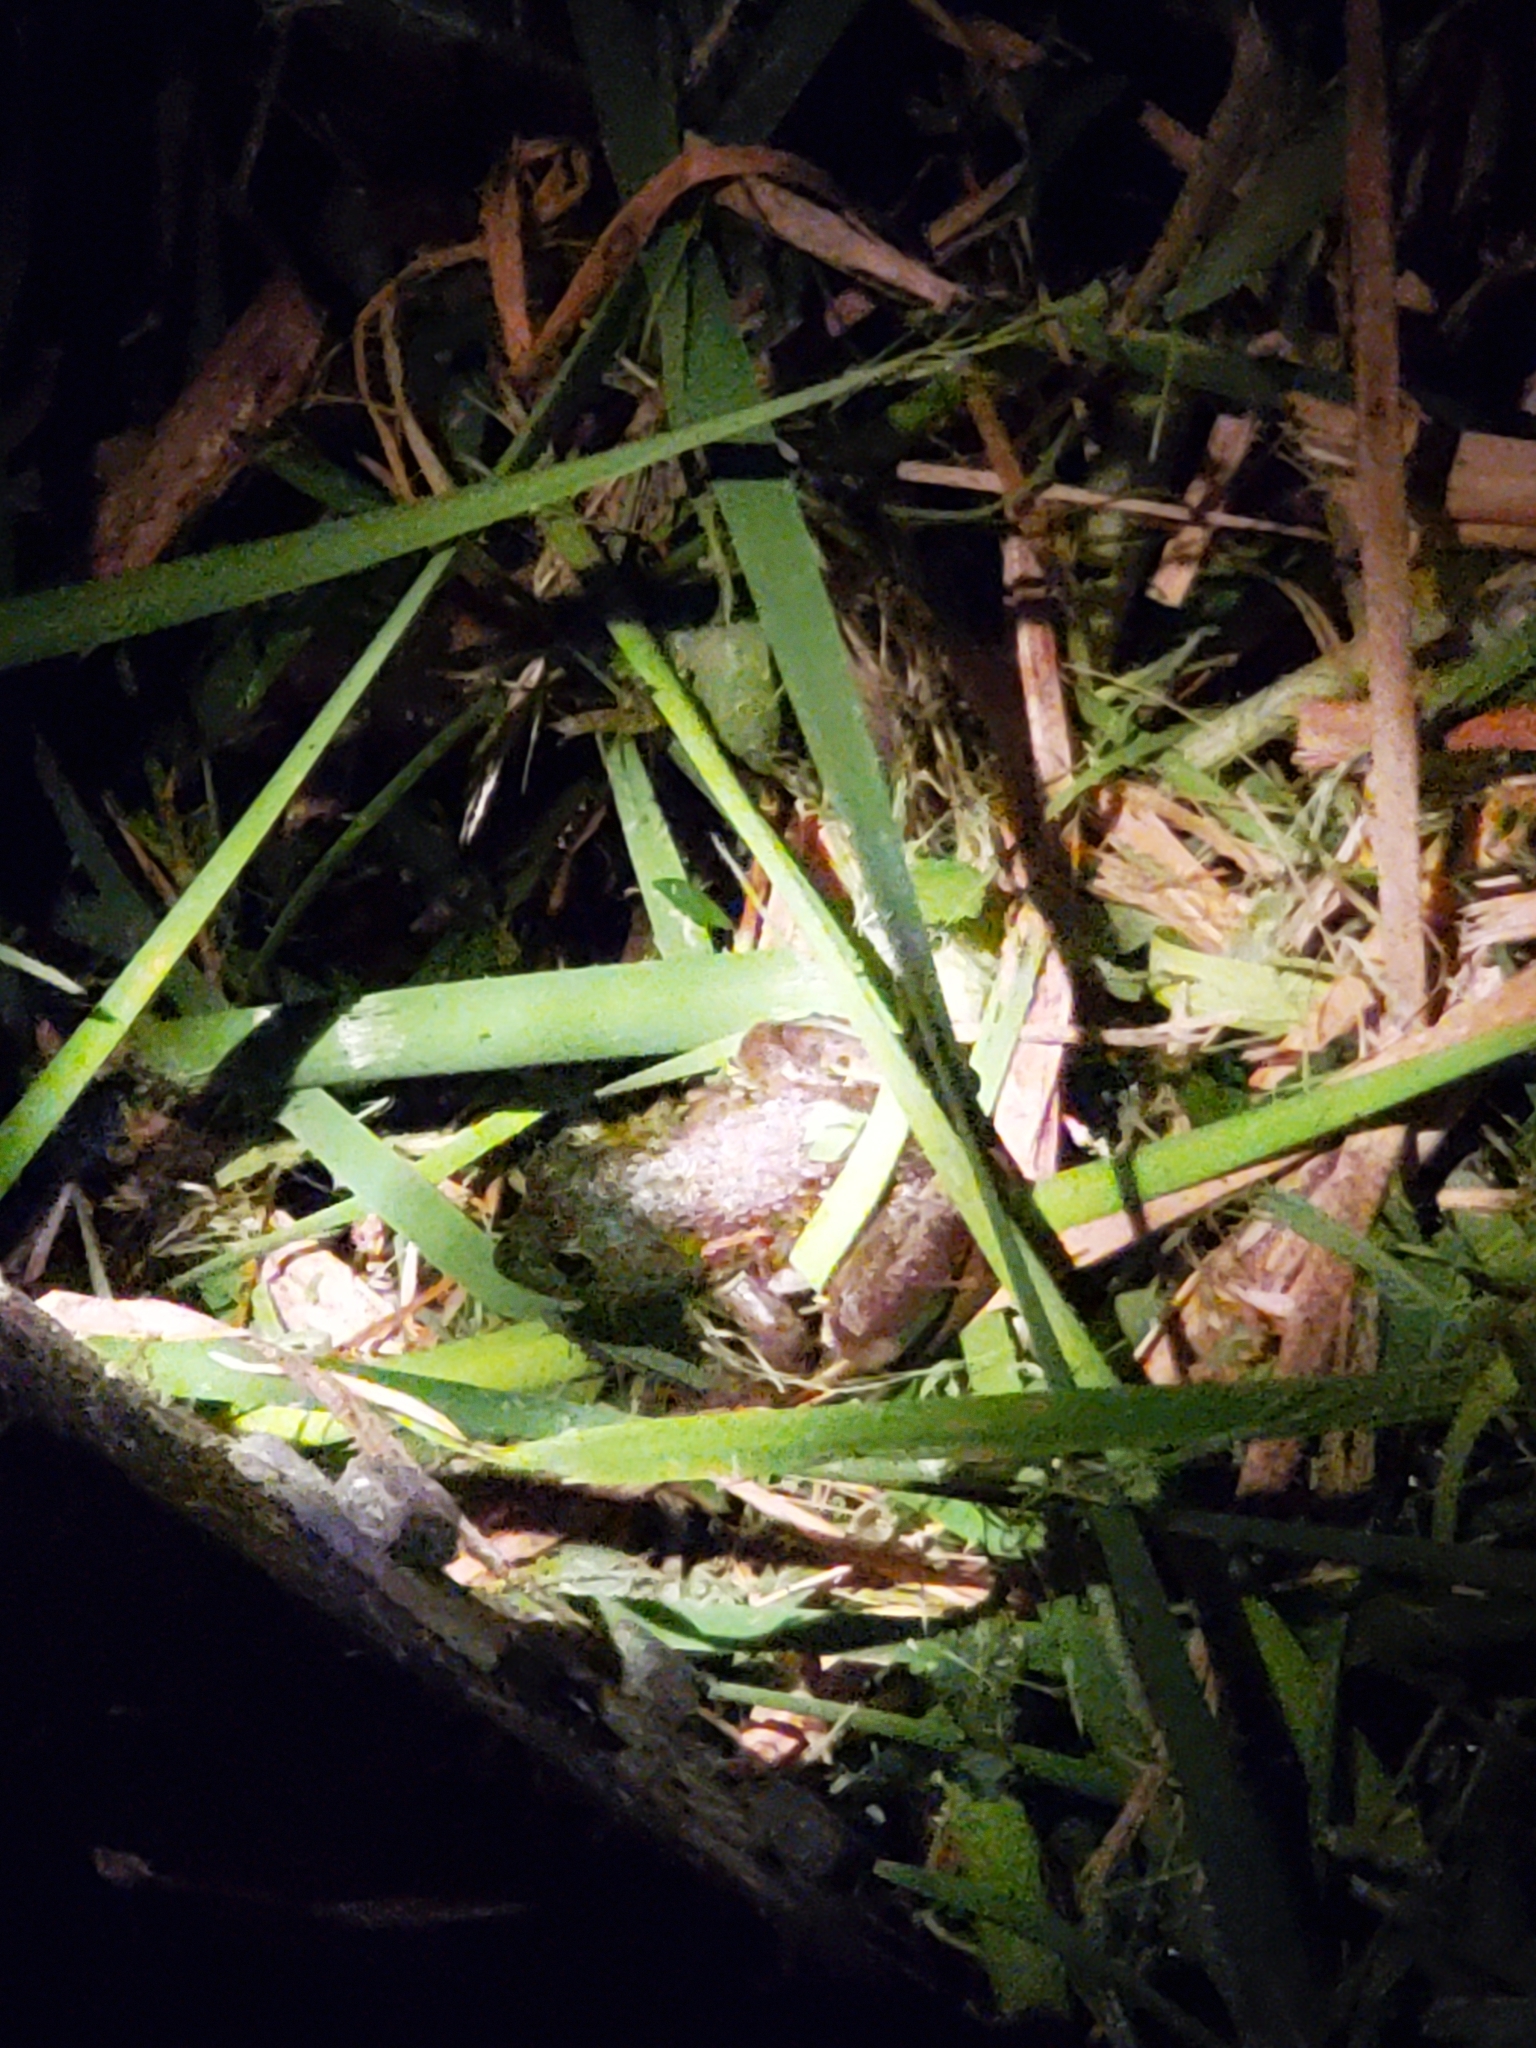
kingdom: Animalia
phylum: Chordata
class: Amphibia
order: Anura
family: Ranidae
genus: Lithobates
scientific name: Lithobates clamitans
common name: Green frog
